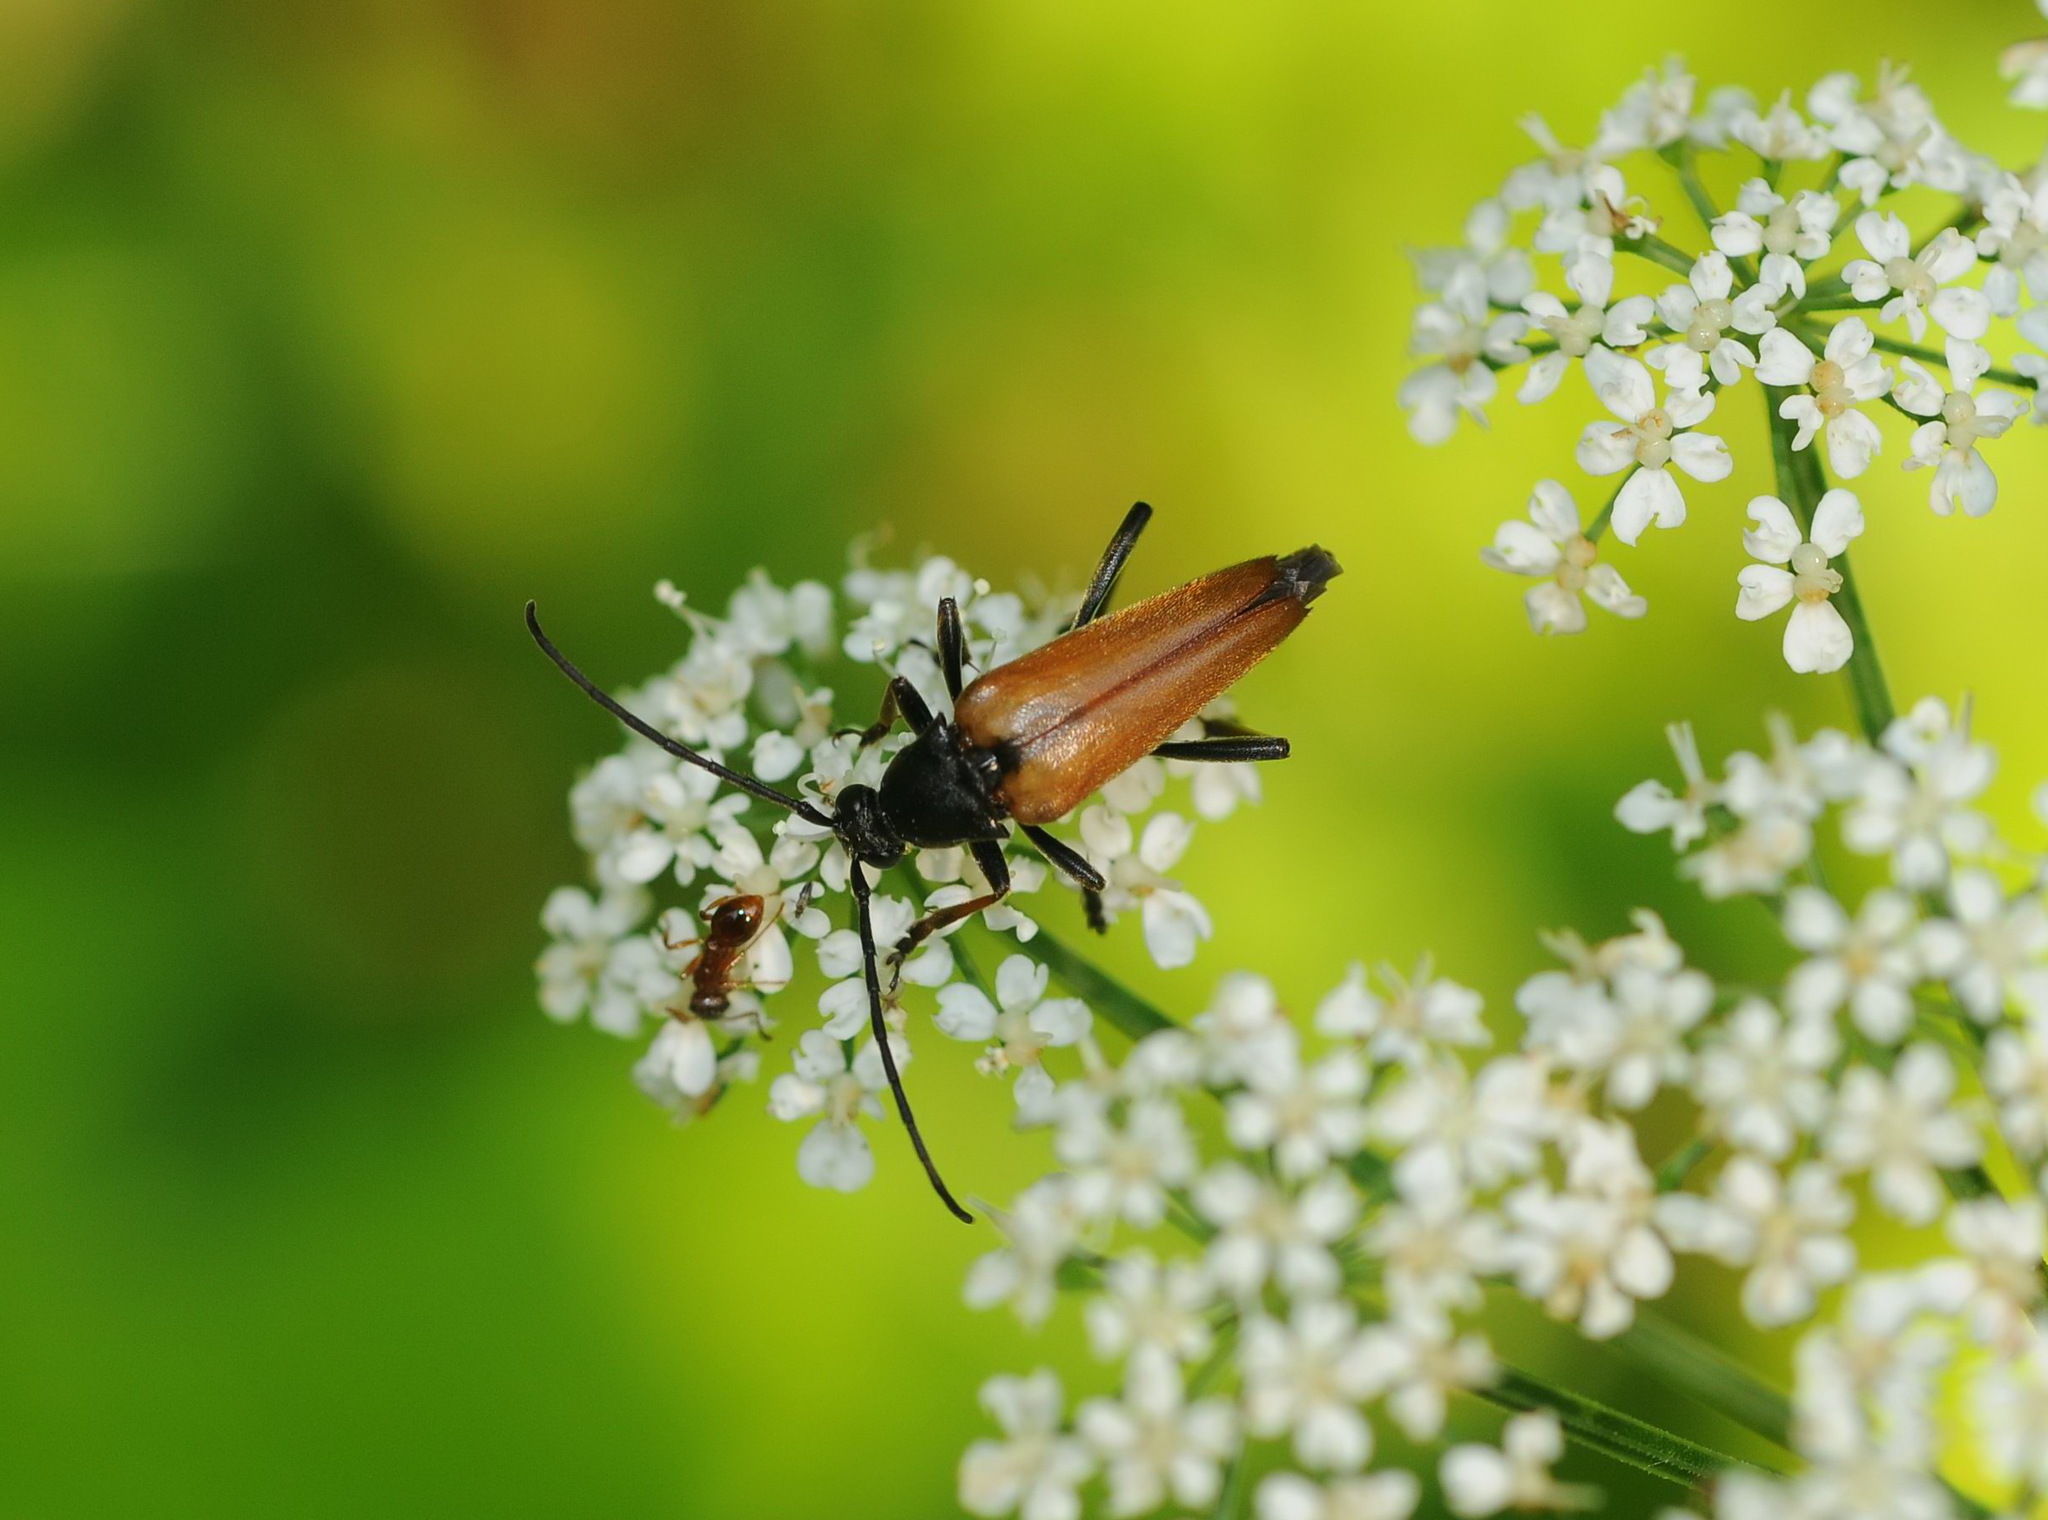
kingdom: Animalia
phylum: Arthropoda
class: Insecta
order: Coleoptera
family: Cerambycidae
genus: Etorofus
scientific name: Etorofus pubescens
